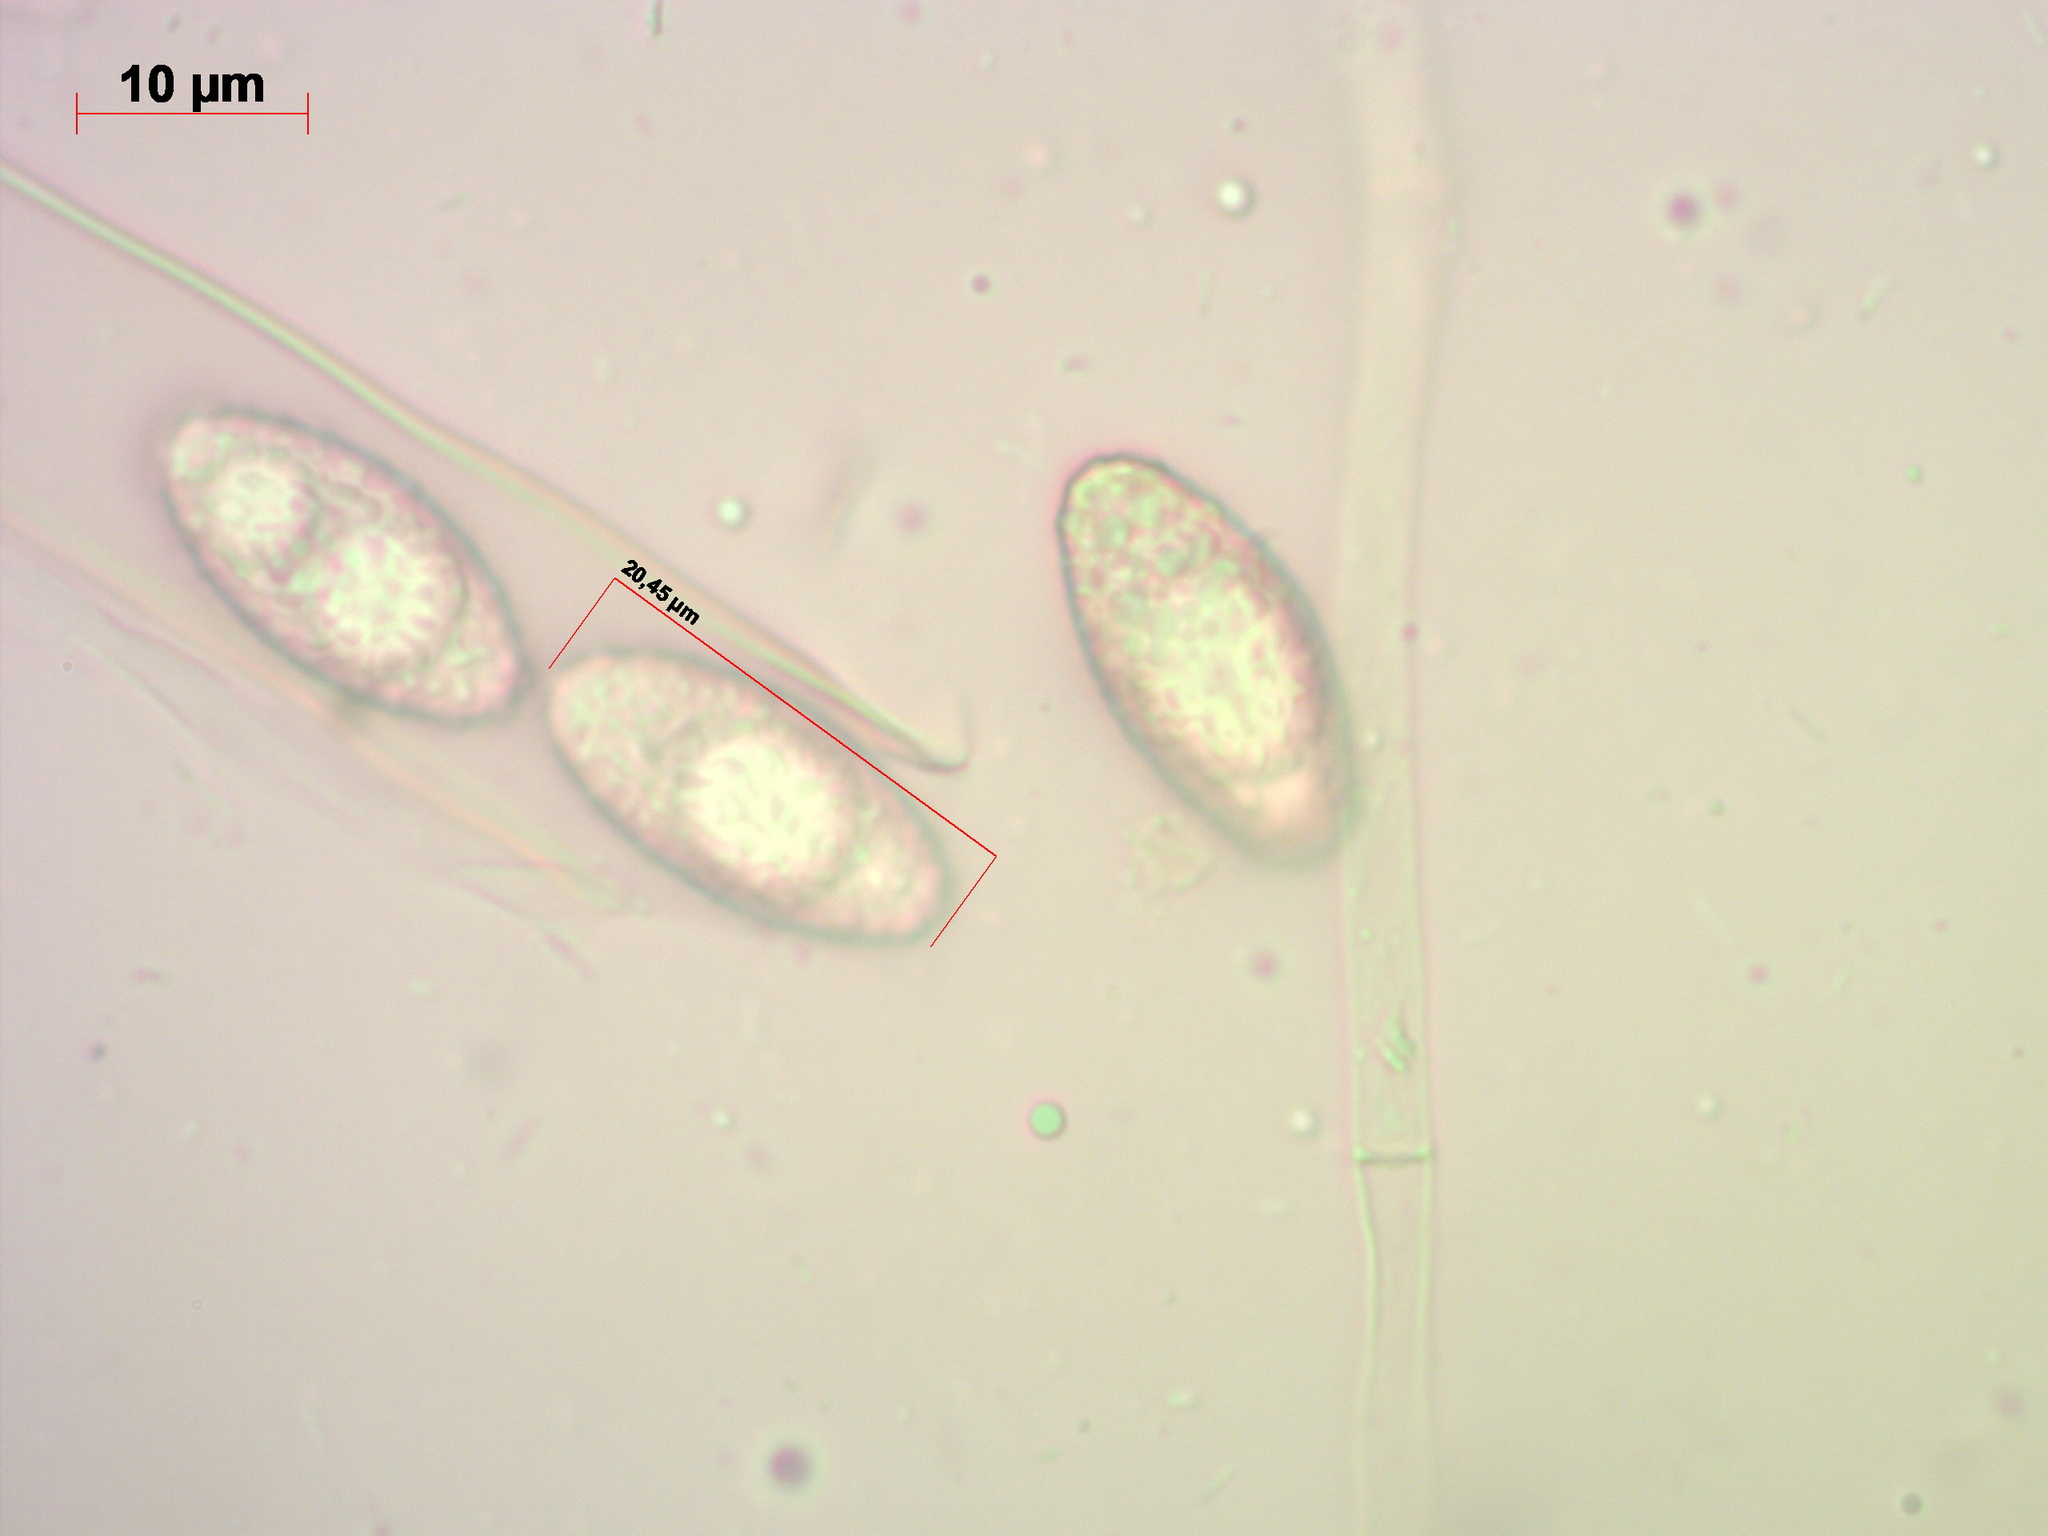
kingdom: Fungi
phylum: Ascomycota
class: Pezizomycetes
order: Pezizales
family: Pezizaceae
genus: Phylloscypha
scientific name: Phylloscypha phyllogena
